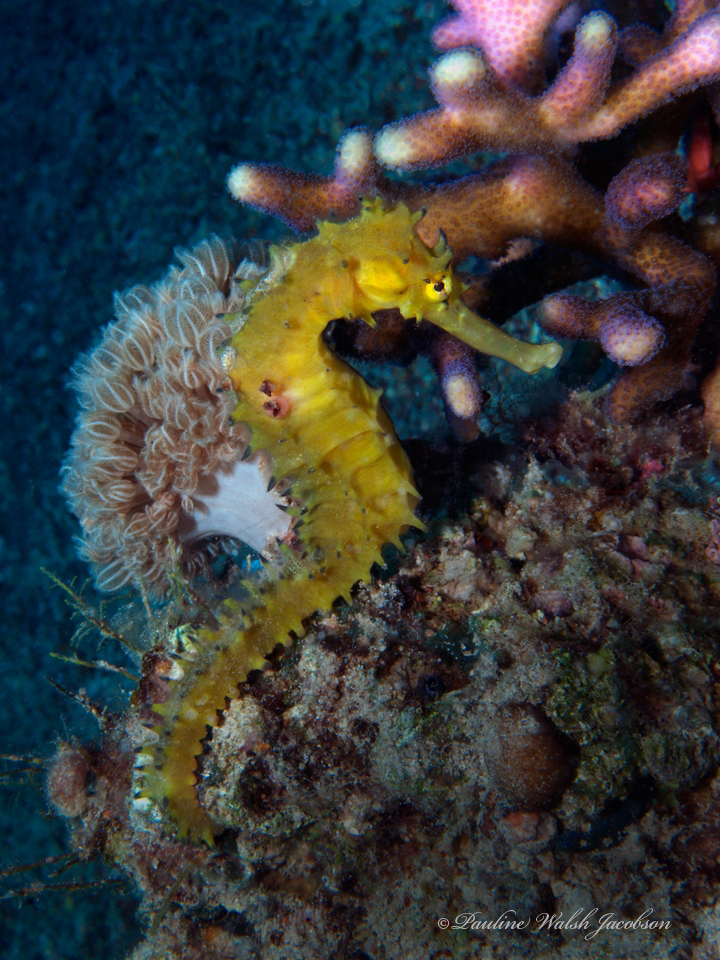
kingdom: Animalia
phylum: Chordata
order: Syngnathiformes
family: Syngnathidae
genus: Hippocampus
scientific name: Hippocampus jayakari
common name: Jayakar's seahorse
